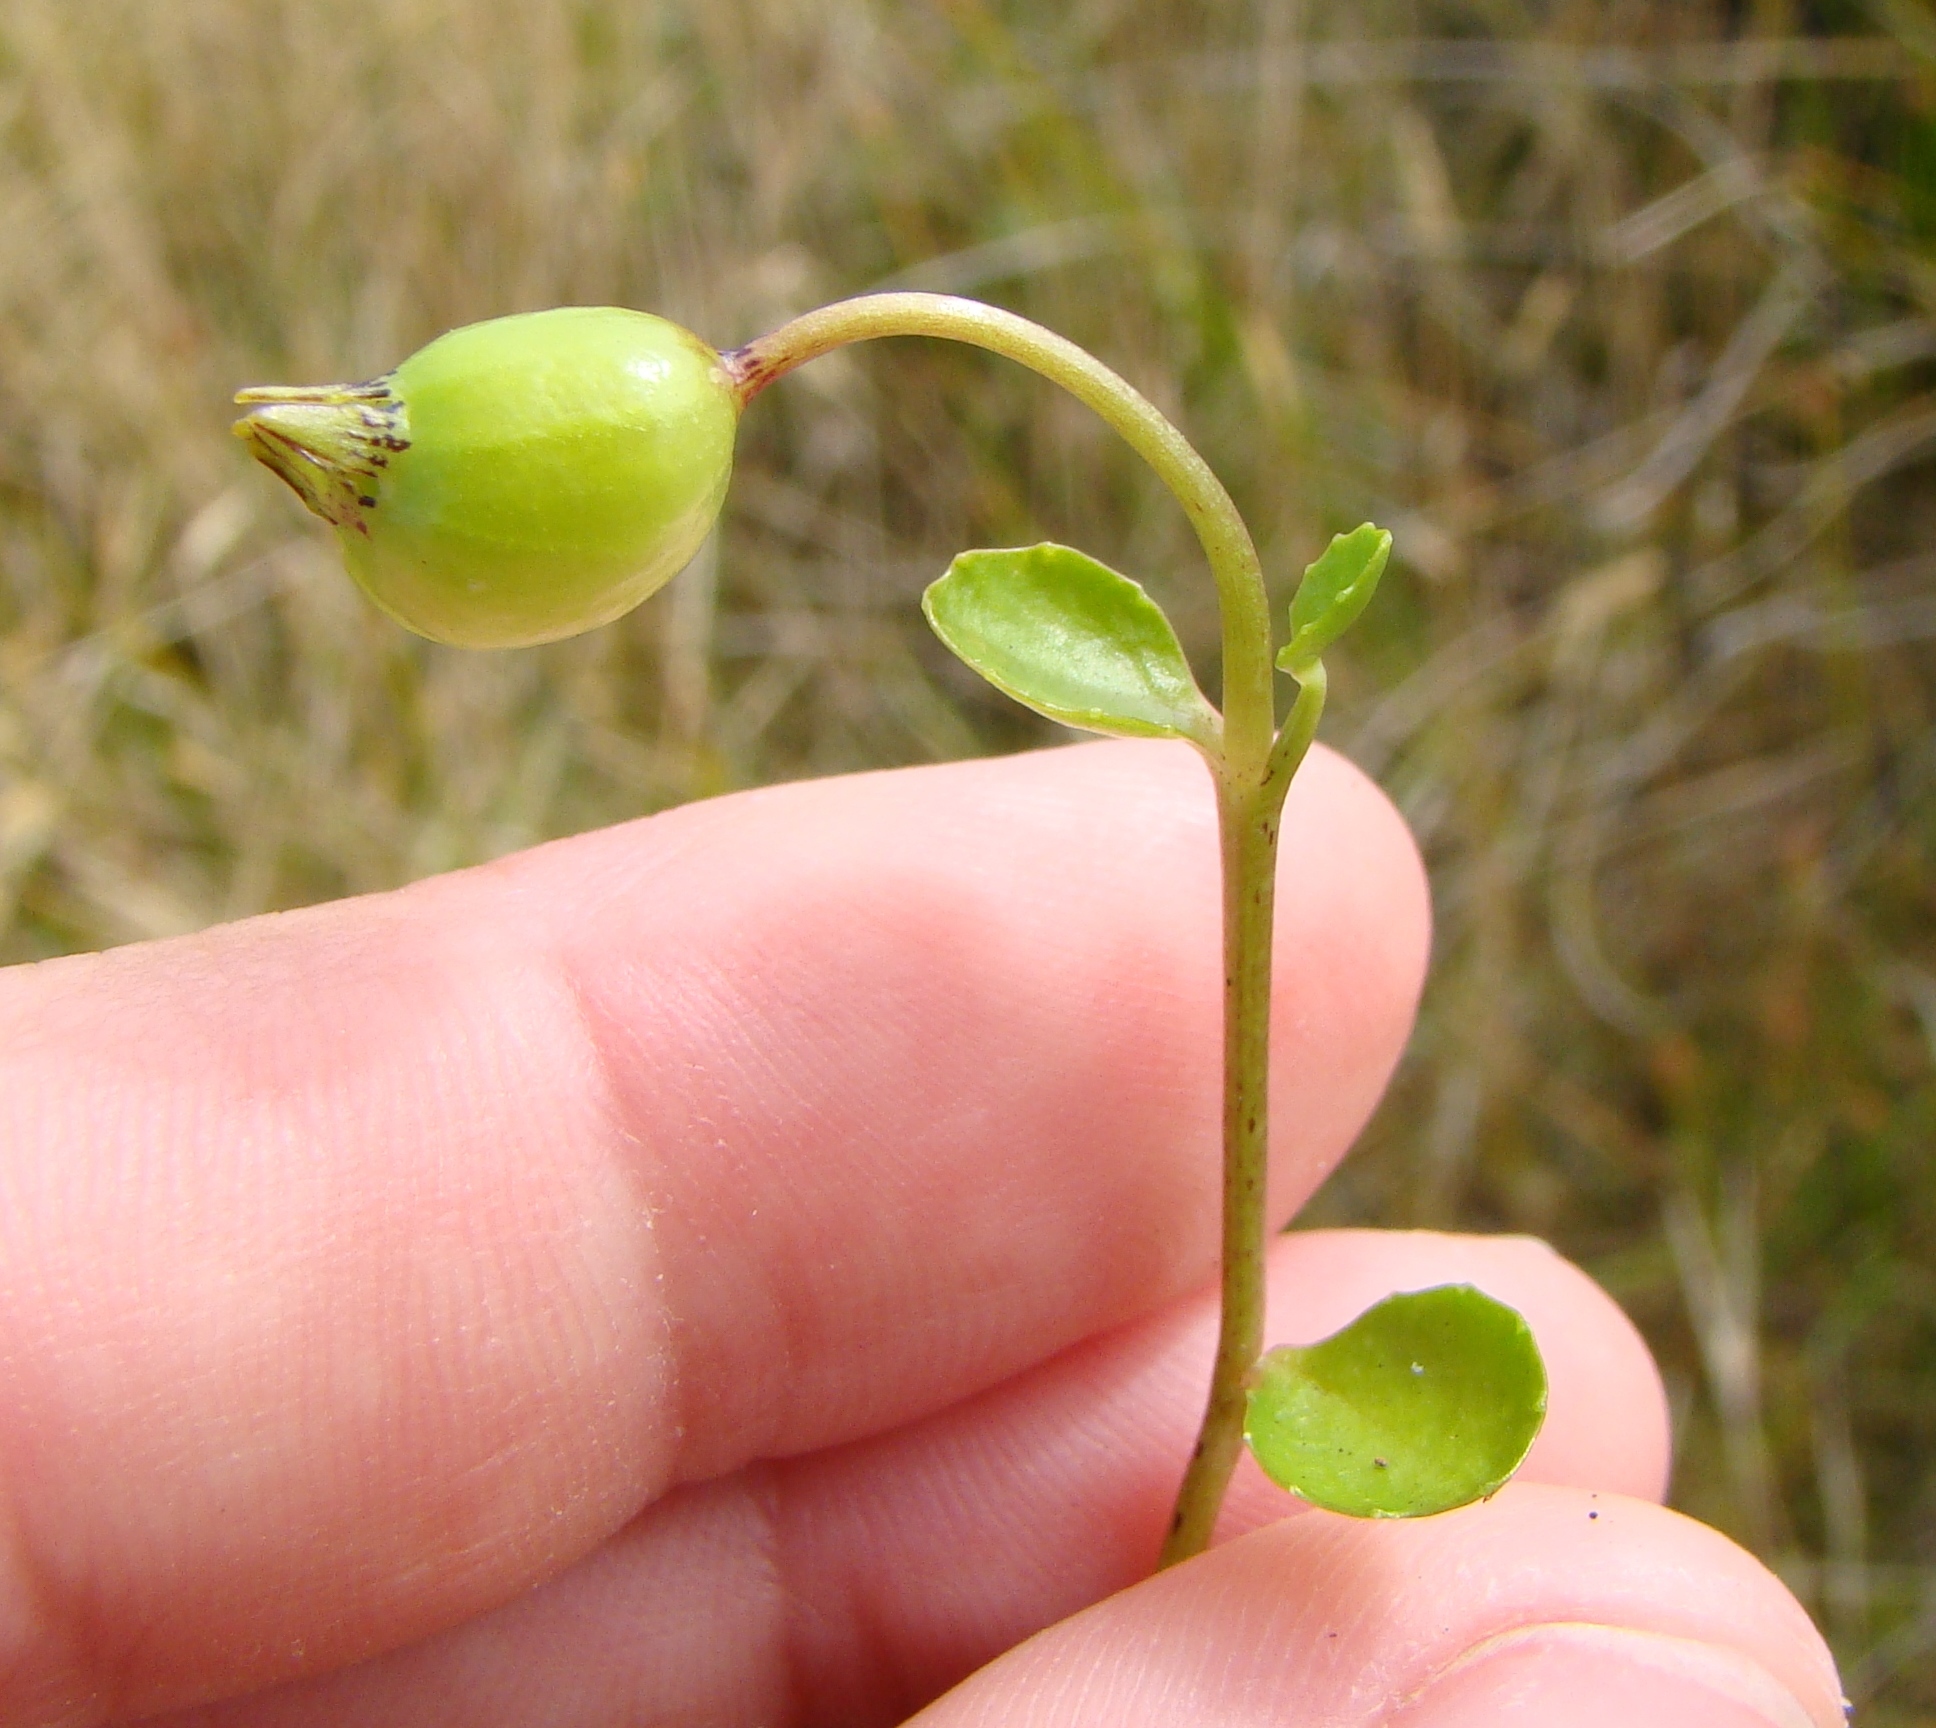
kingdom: Plantae
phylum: Tracheophyta
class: Magnoliopsida
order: Asterales
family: Campanulaceae
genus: Lobelia
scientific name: Lobelia arenaria
